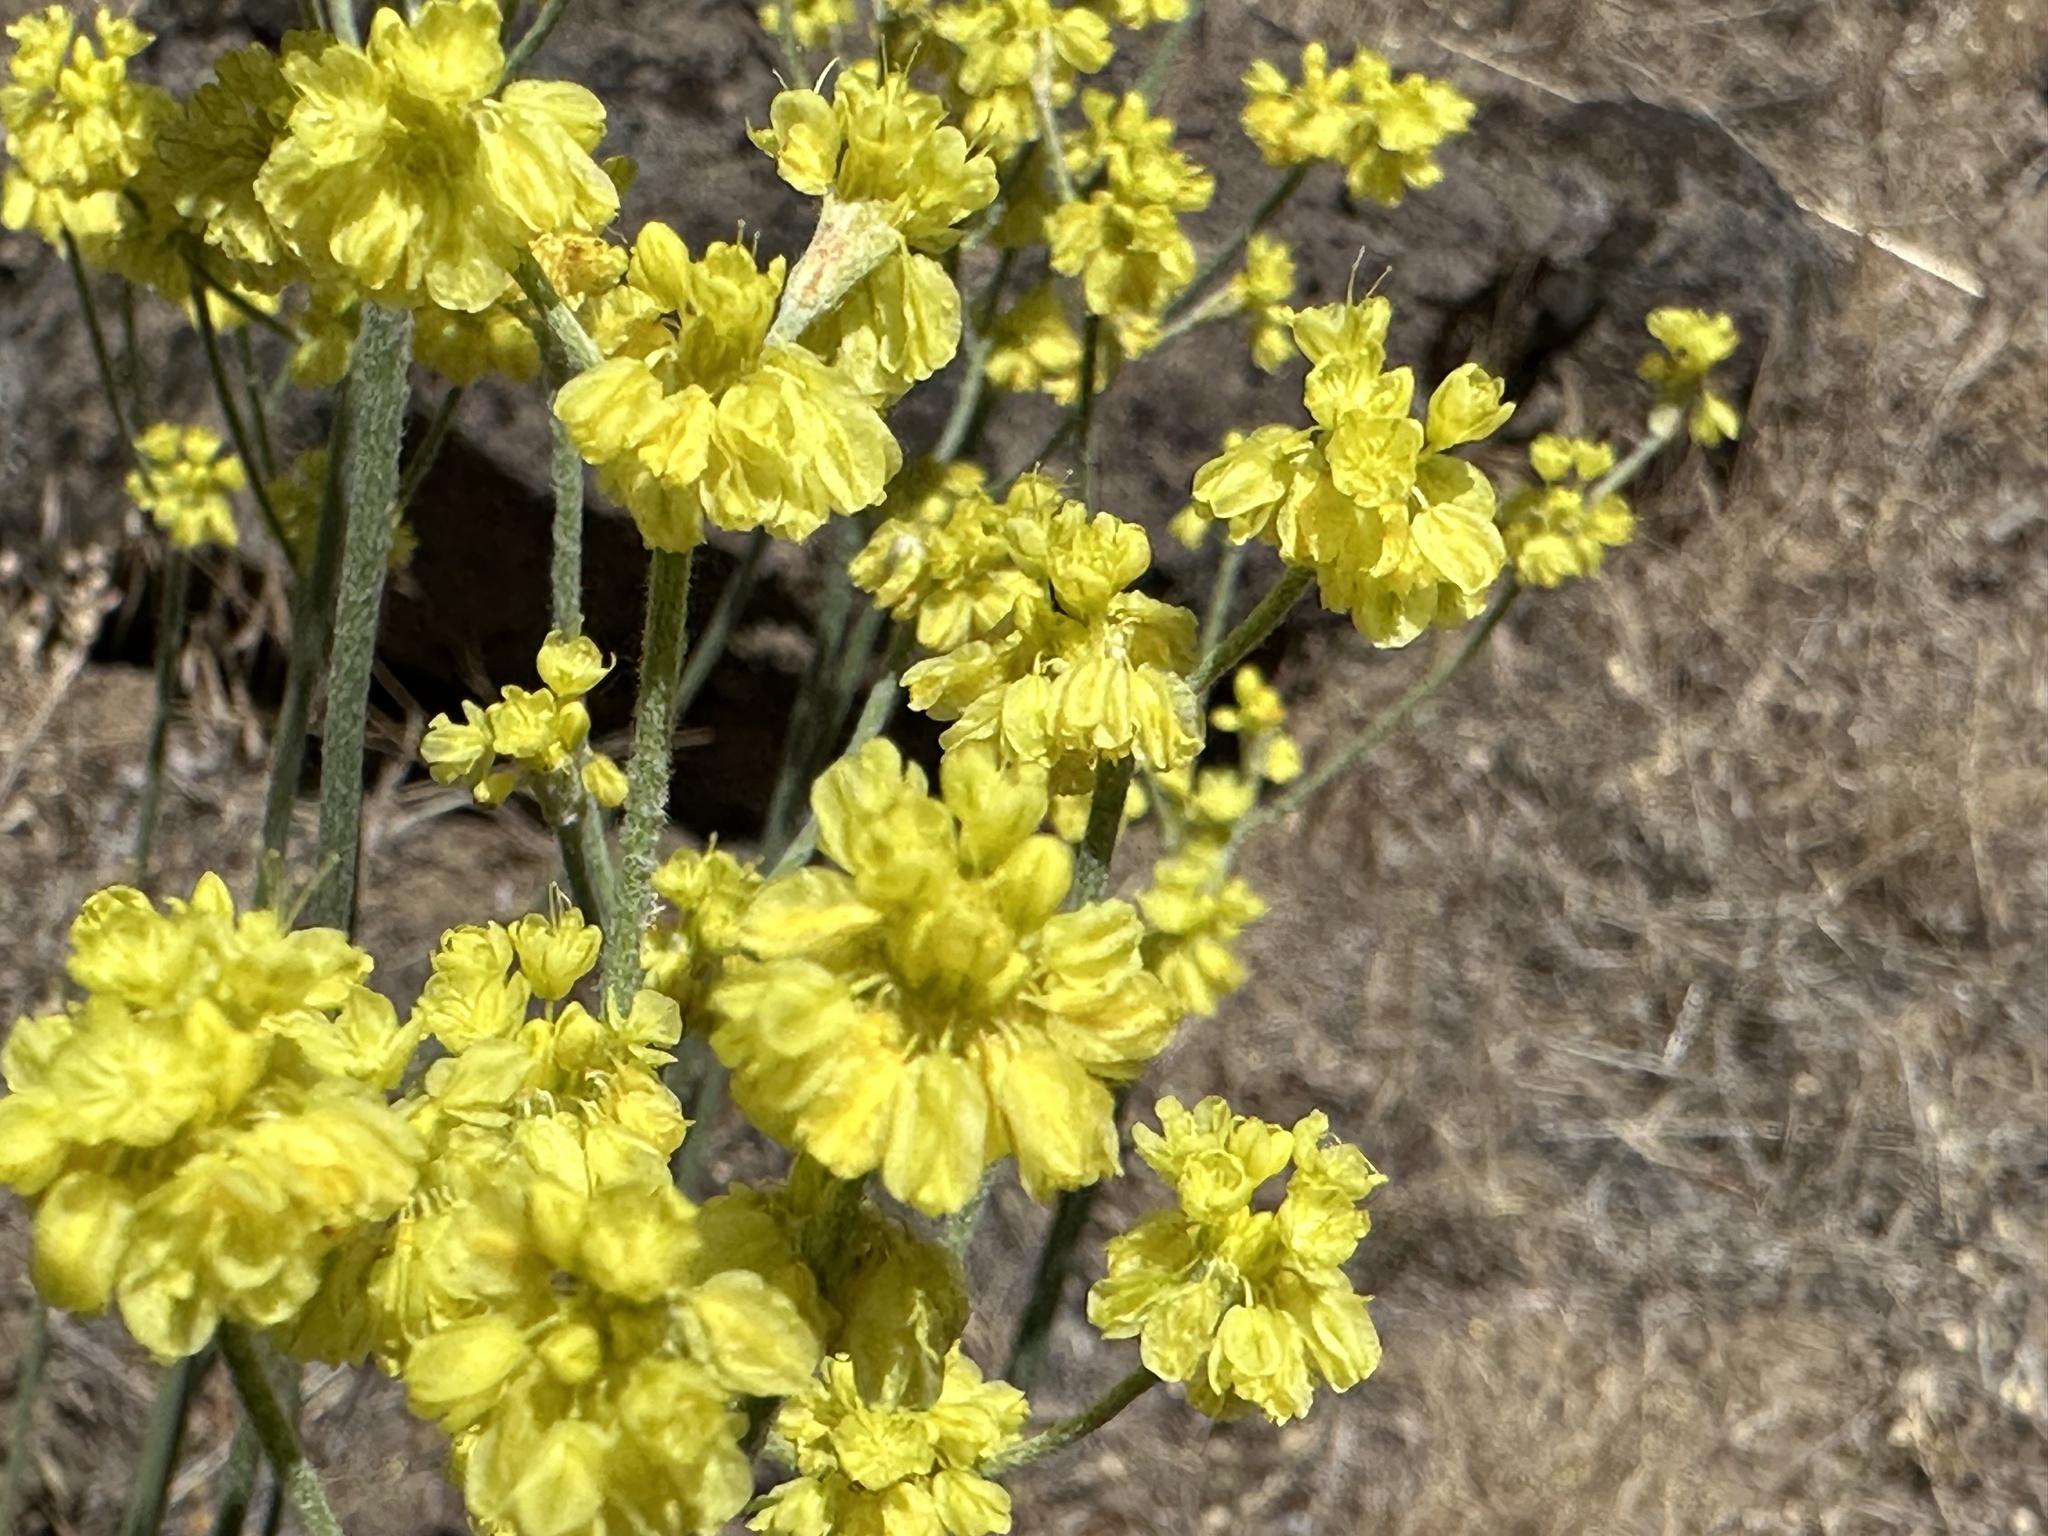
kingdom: Plantae
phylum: Tracheophyta
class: Magnoliopsida
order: Caryophyllales
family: Polygonaceae
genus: Eriogonum
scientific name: Eriogonum strictum
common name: Blue mountain buckwheat
